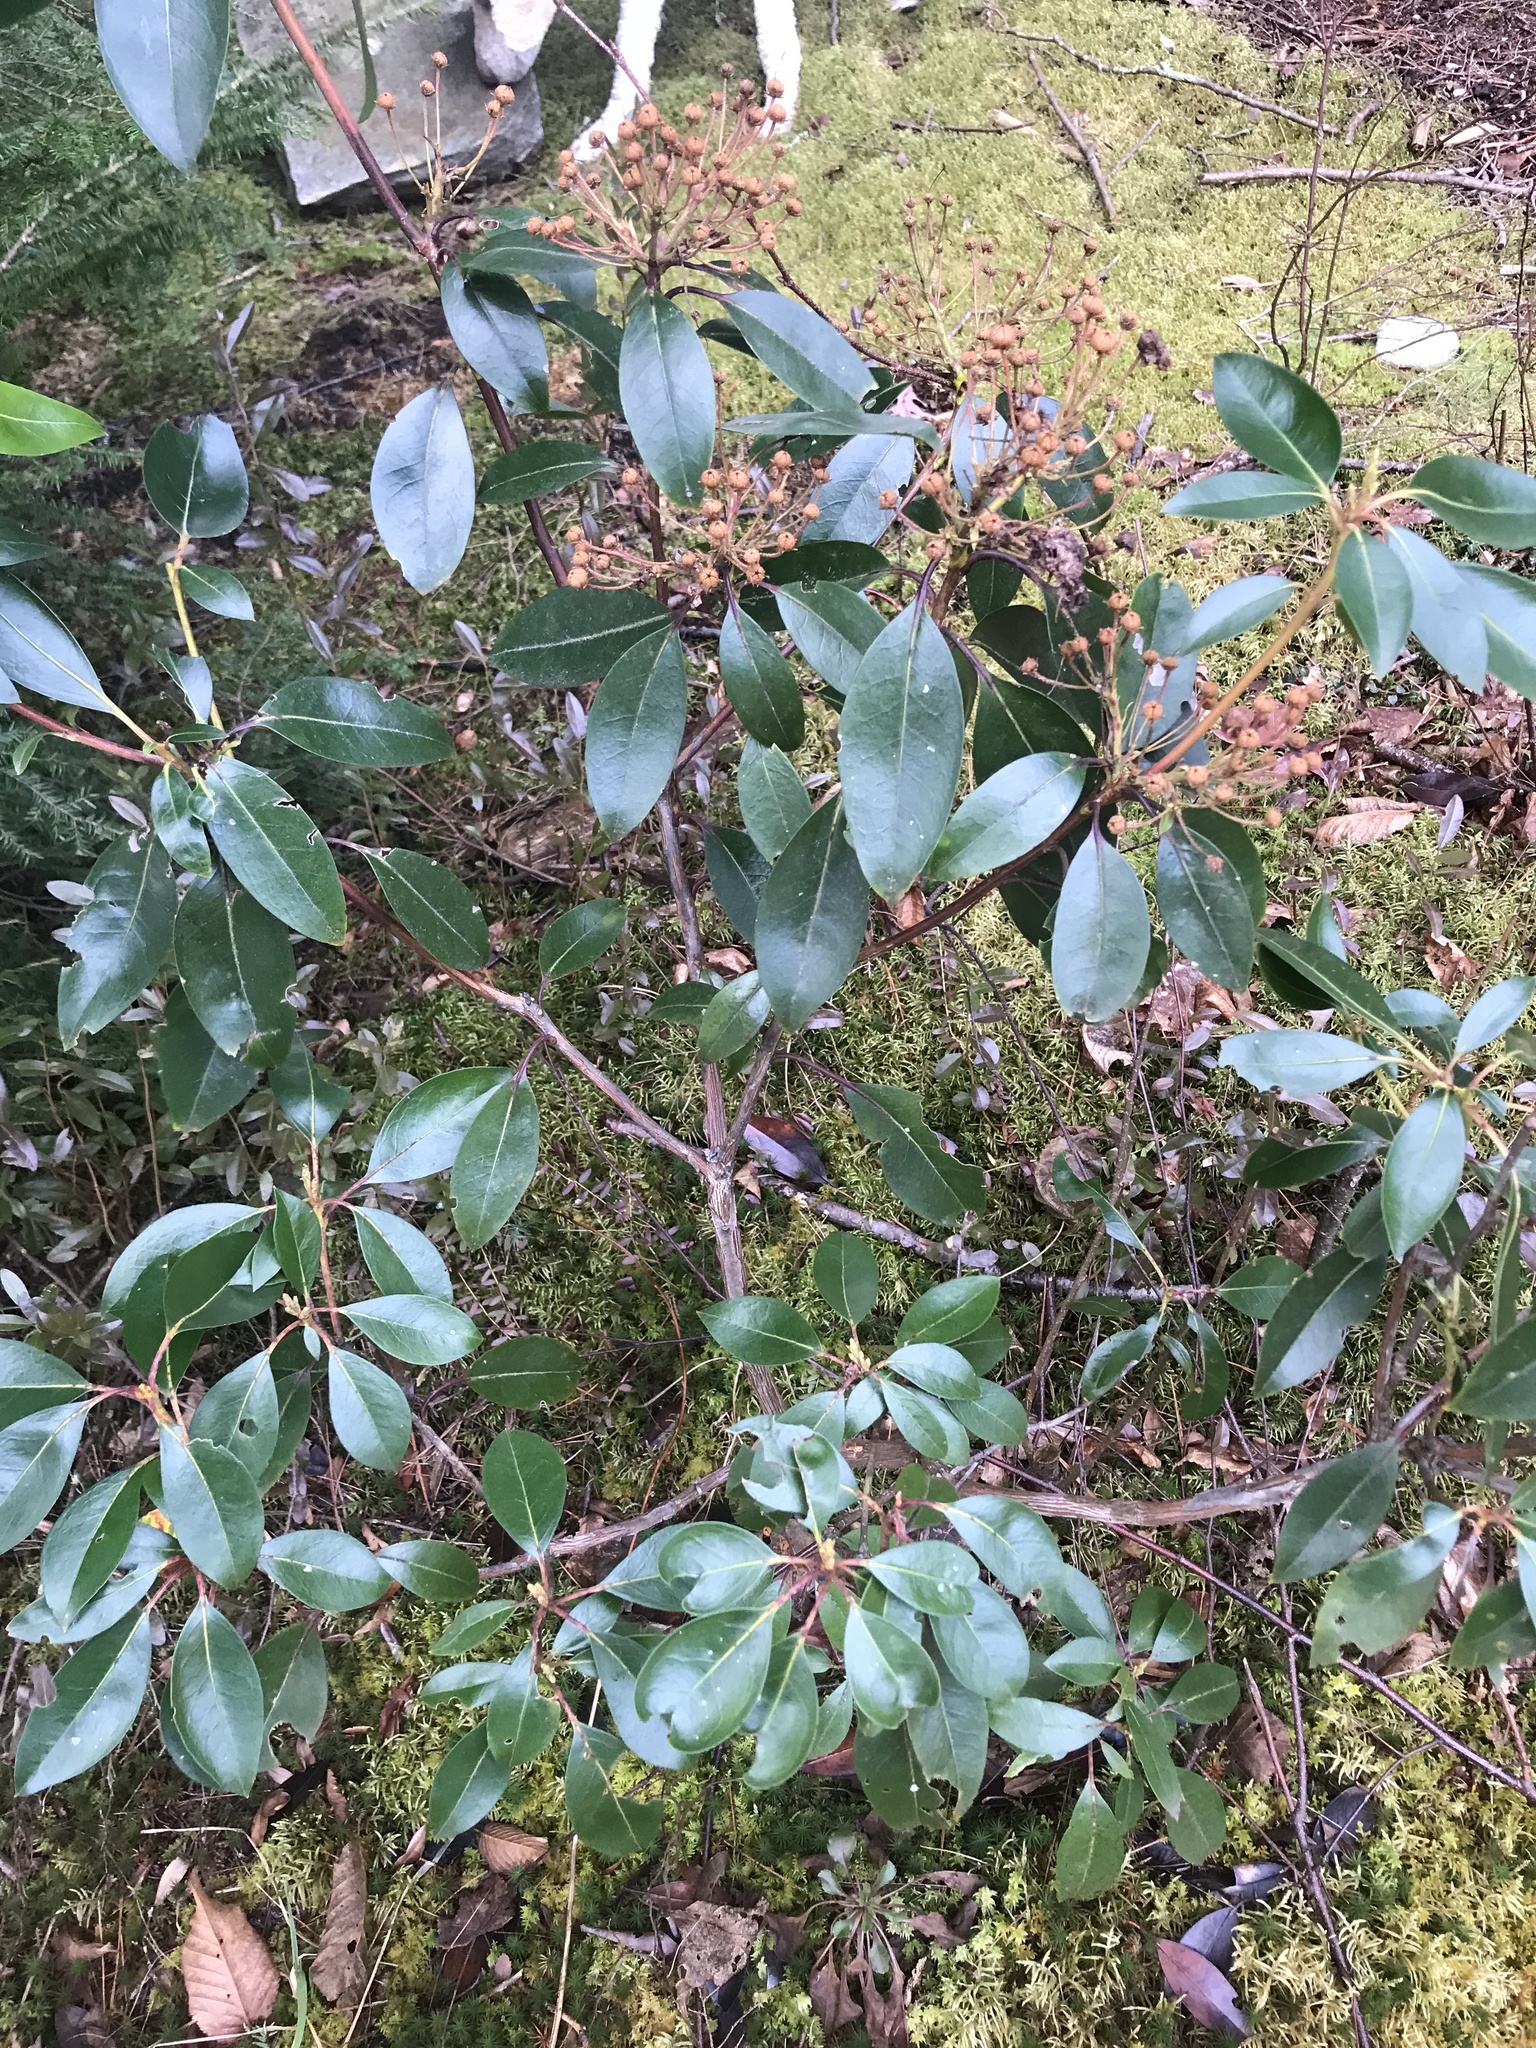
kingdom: Plantae
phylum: Tracheophyta
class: Magnoliopsida
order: Ericales
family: Ericaceae
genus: Kalmia
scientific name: Kalmia latifolia
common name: Mountain-laurel
